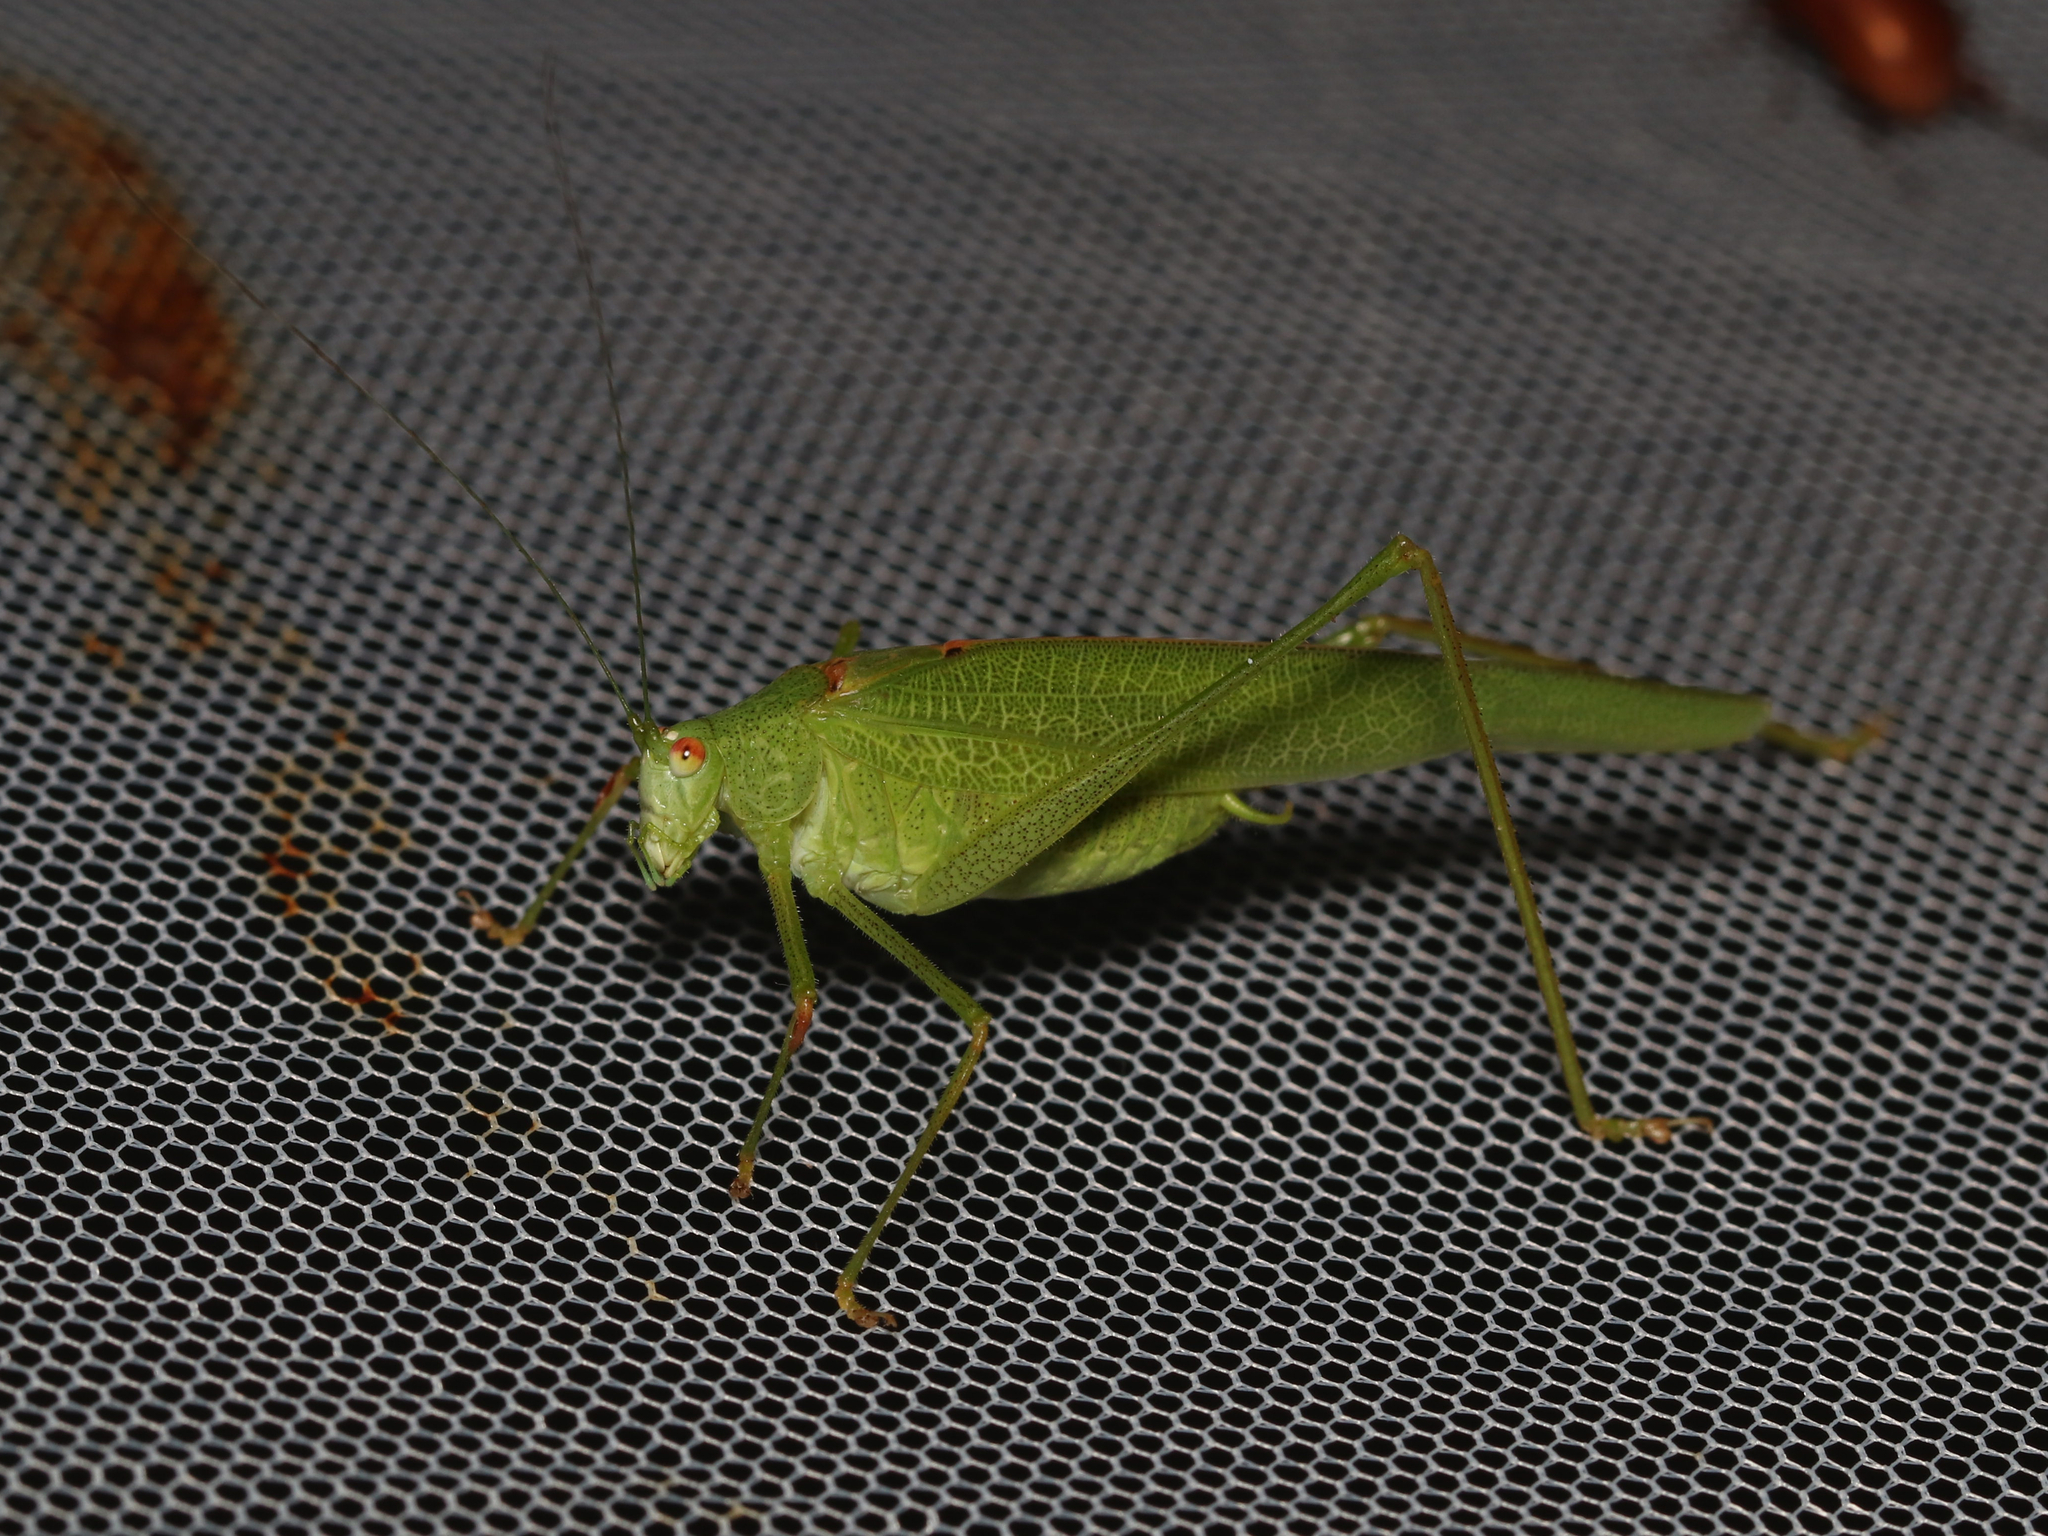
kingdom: Animalia
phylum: Arthropoda
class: Insecta
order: Orthoptera
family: Tettigoniidae
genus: Phaneroptera
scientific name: Phaneroptera nana
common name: Southern sickle bush-cricket
